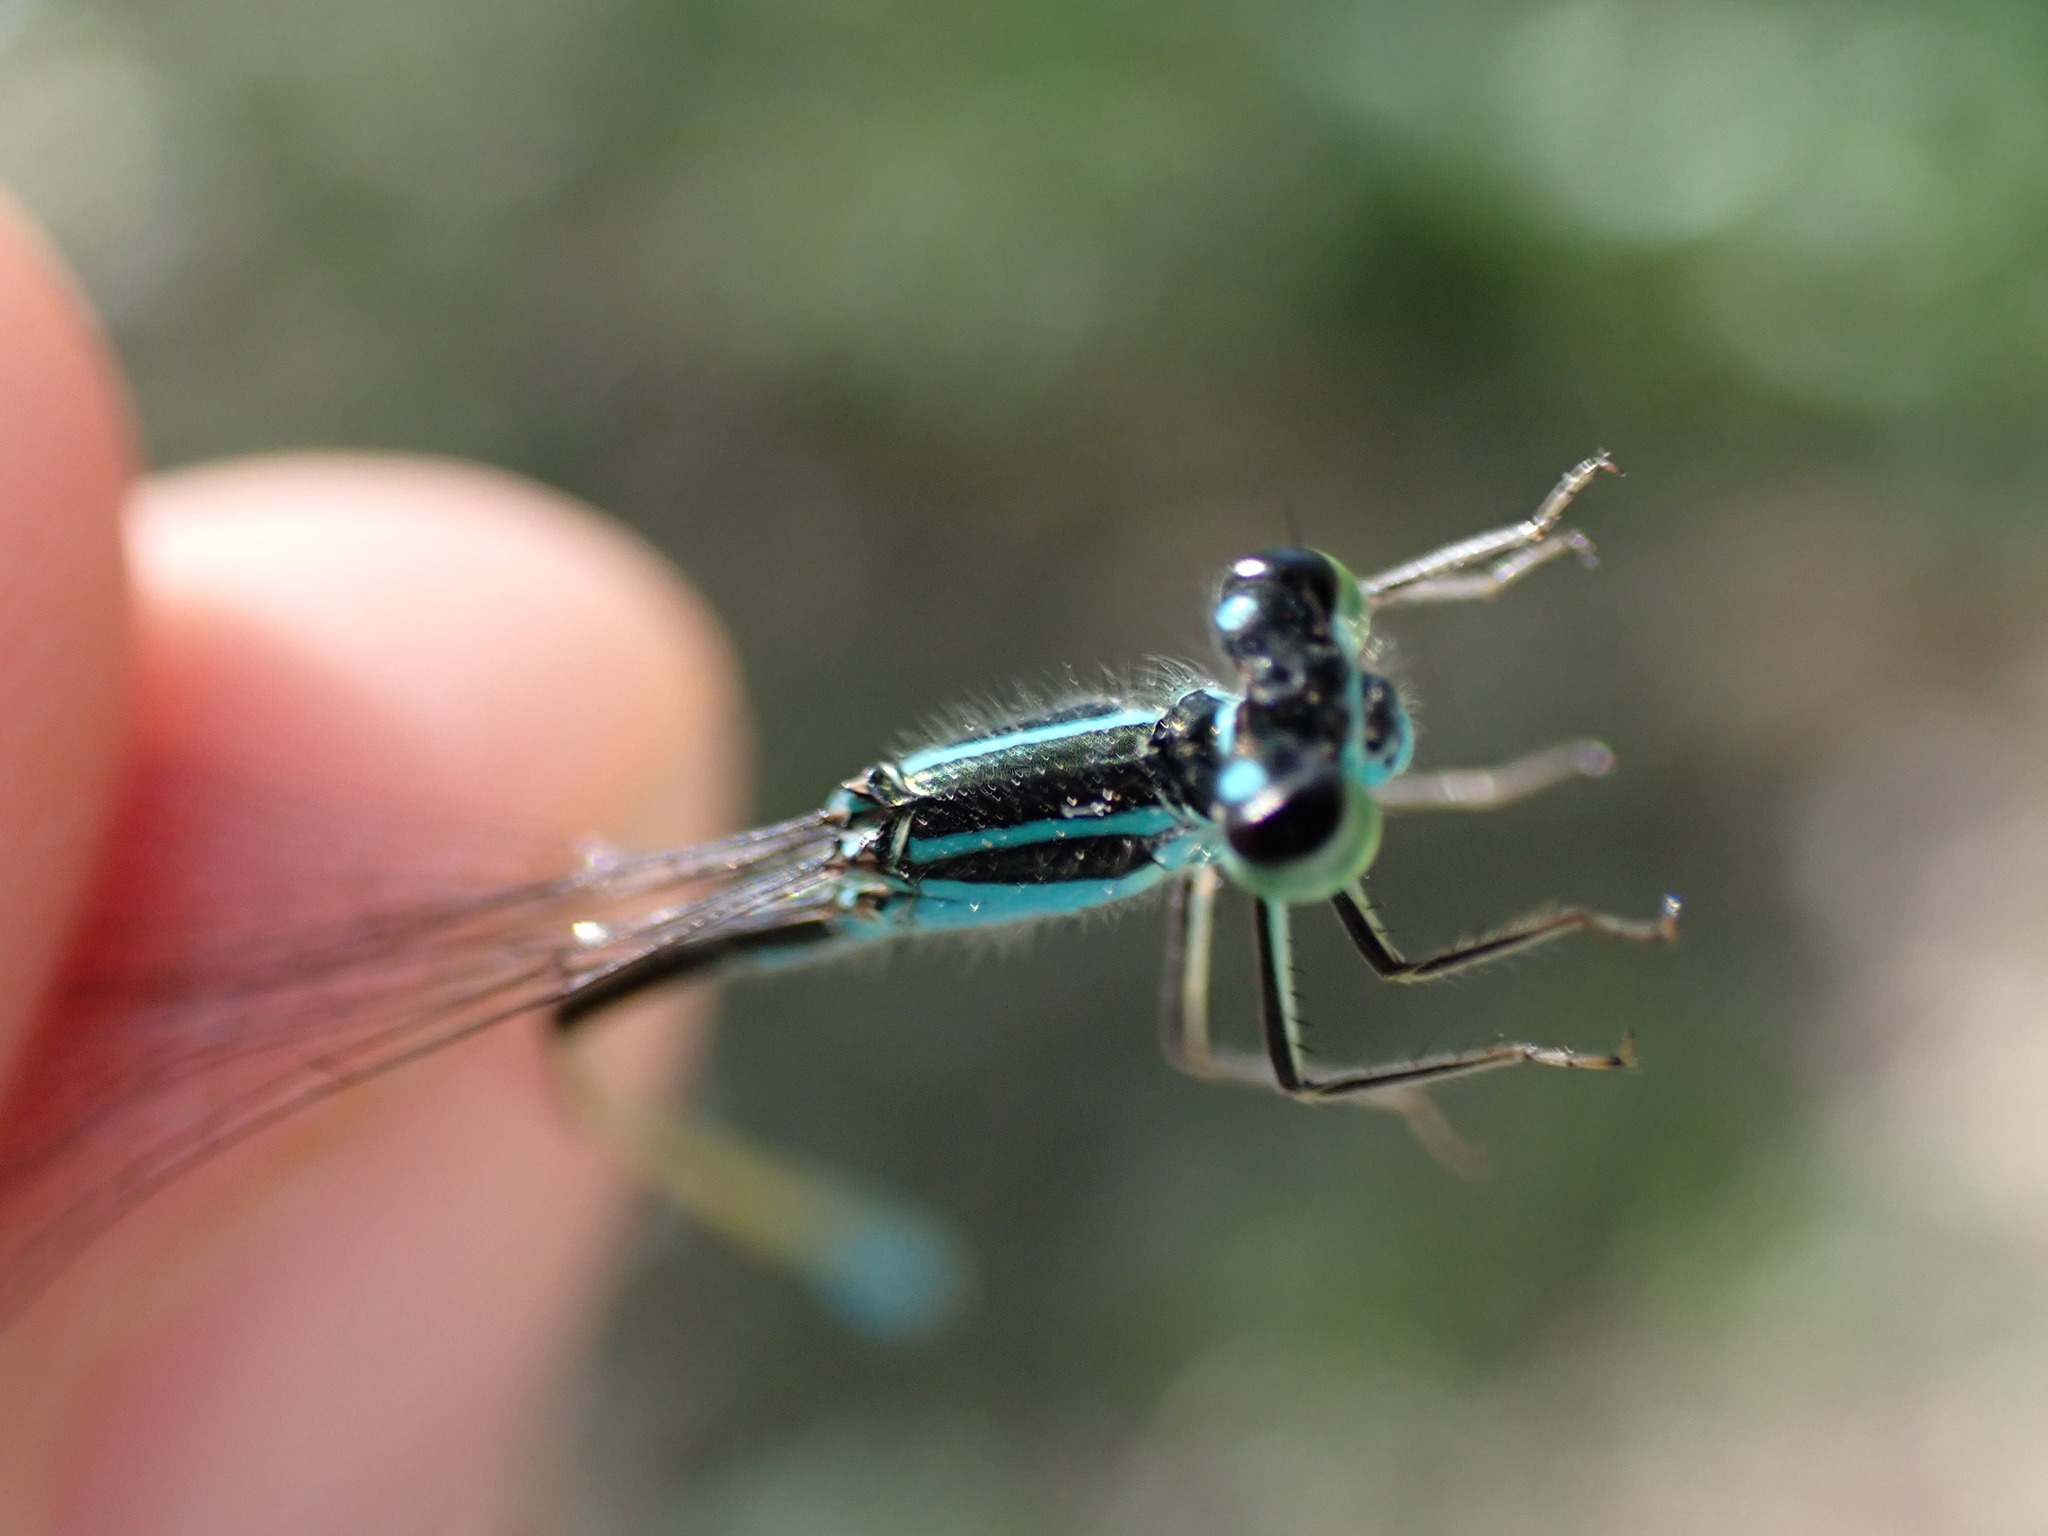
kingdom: Animalia
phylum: Arthropoda
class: Insecta
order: Odonata
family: Coenagrionidae
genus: Ischnura
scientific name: Ischnura elegans
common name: Blue-tailed damselfly
